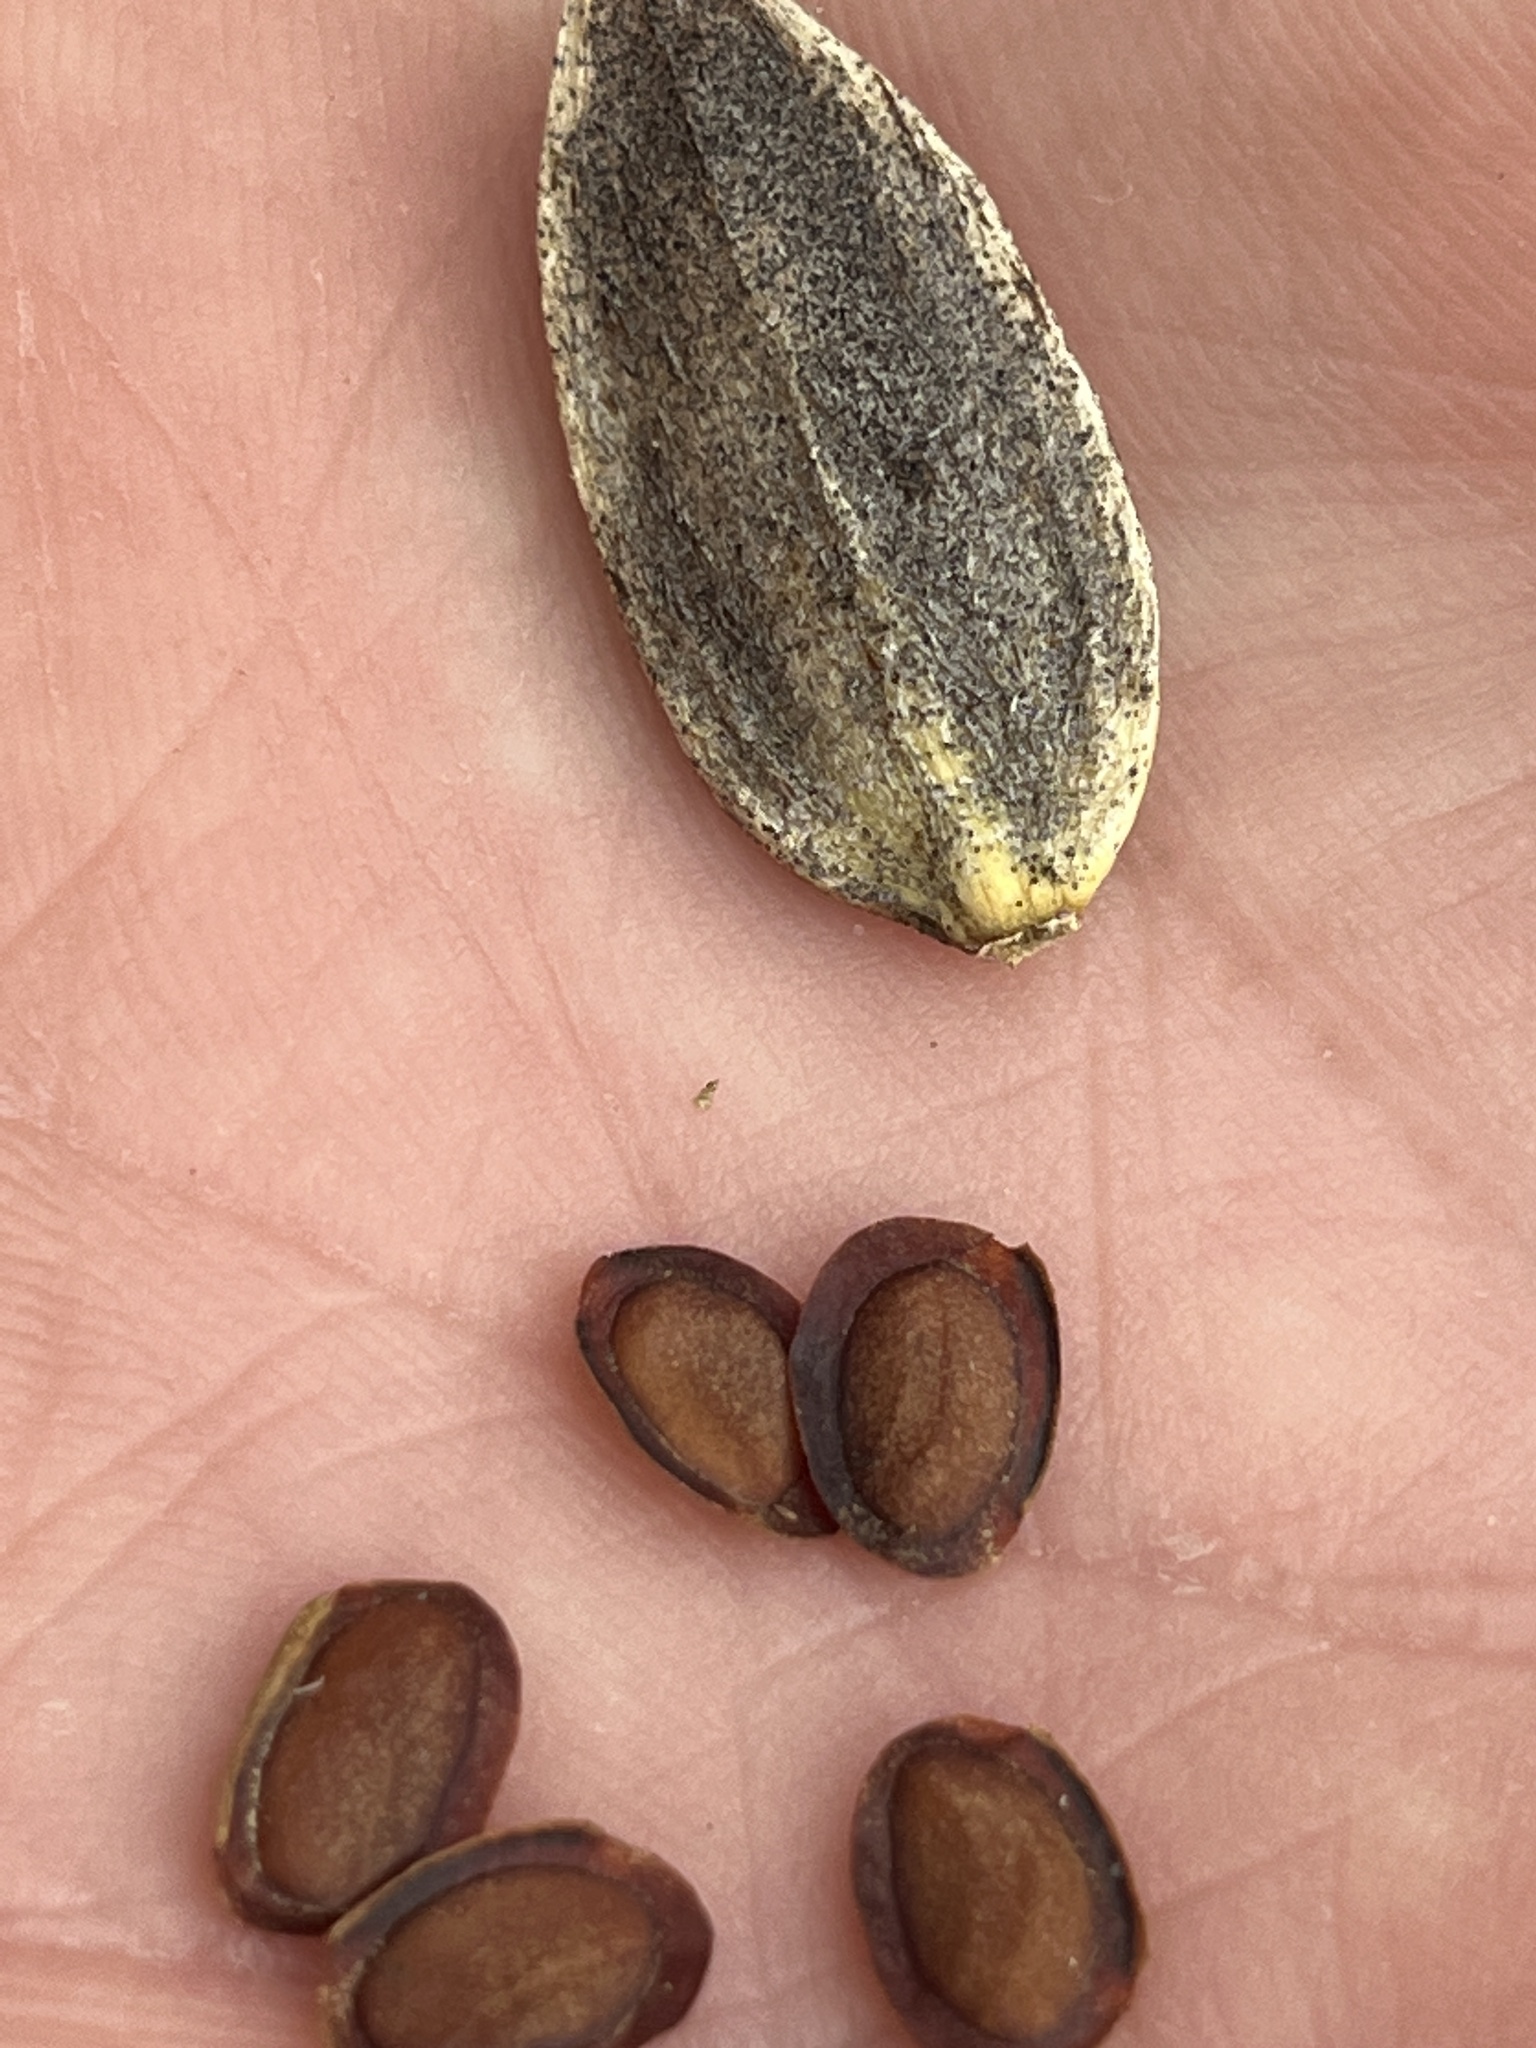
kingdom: Plantae
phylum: Tracheophyta
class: Magnoliopsida
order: Gentianales
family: Gentianaceae
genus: Frasera
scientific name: Frasera caroliniensis
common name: American columbo
